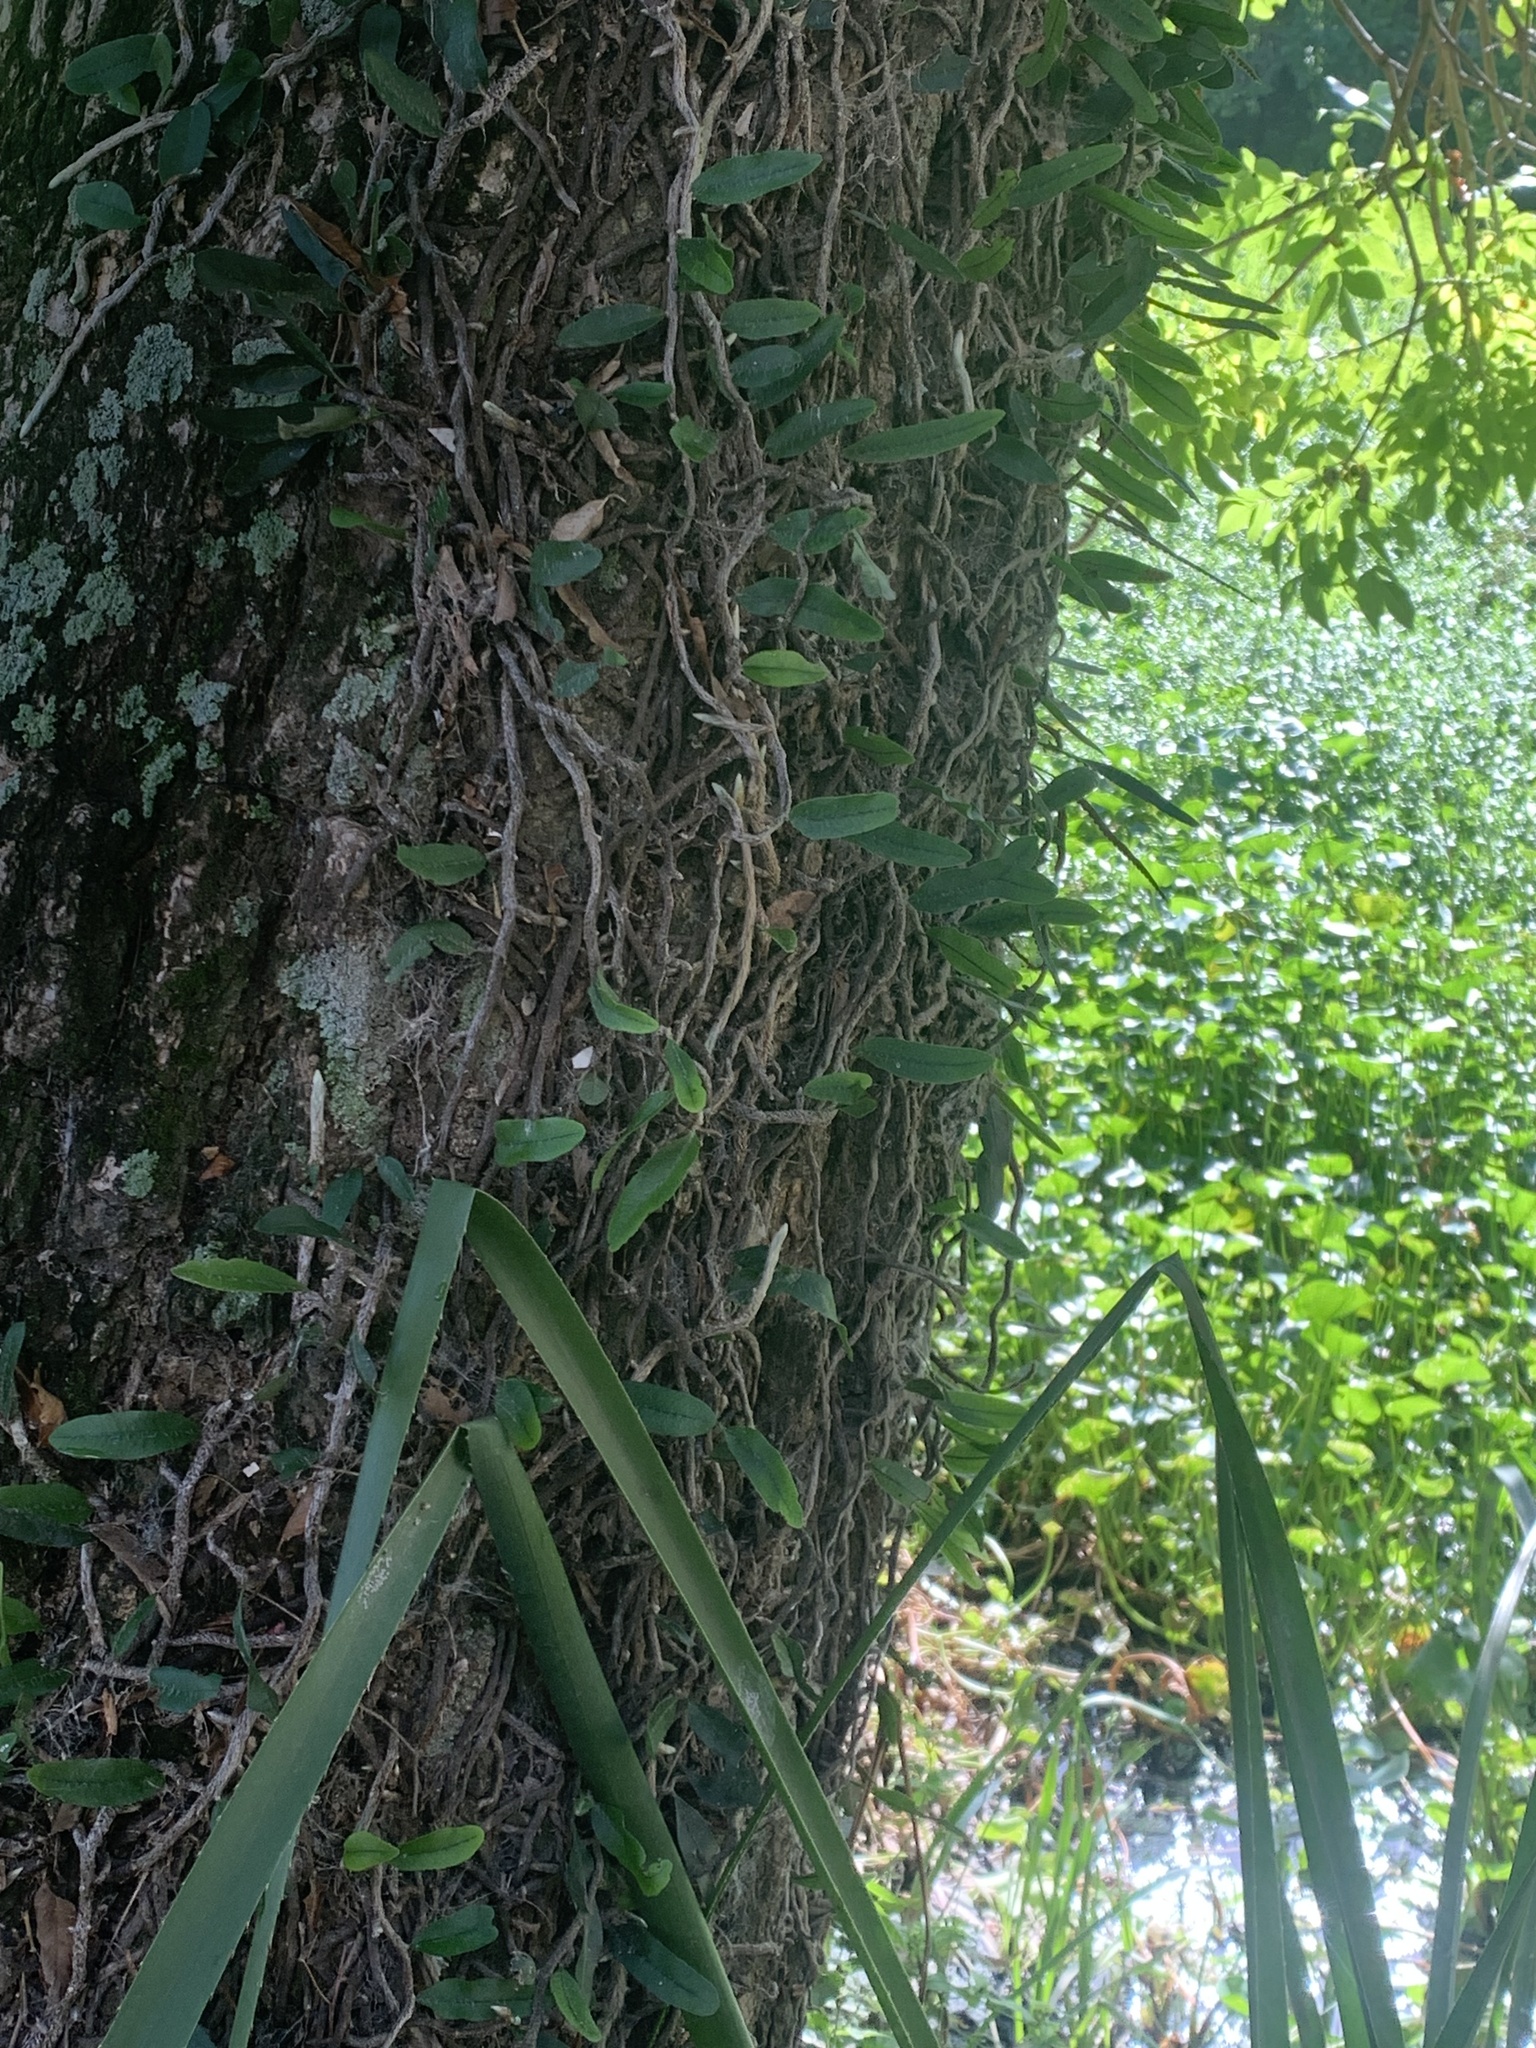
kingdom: Plantae
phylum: Tracheophyta
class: Polypodiopsida
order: Polypodiales
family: Polypodiaceae
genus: Microgramma
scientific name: Microgramma mortoniana
